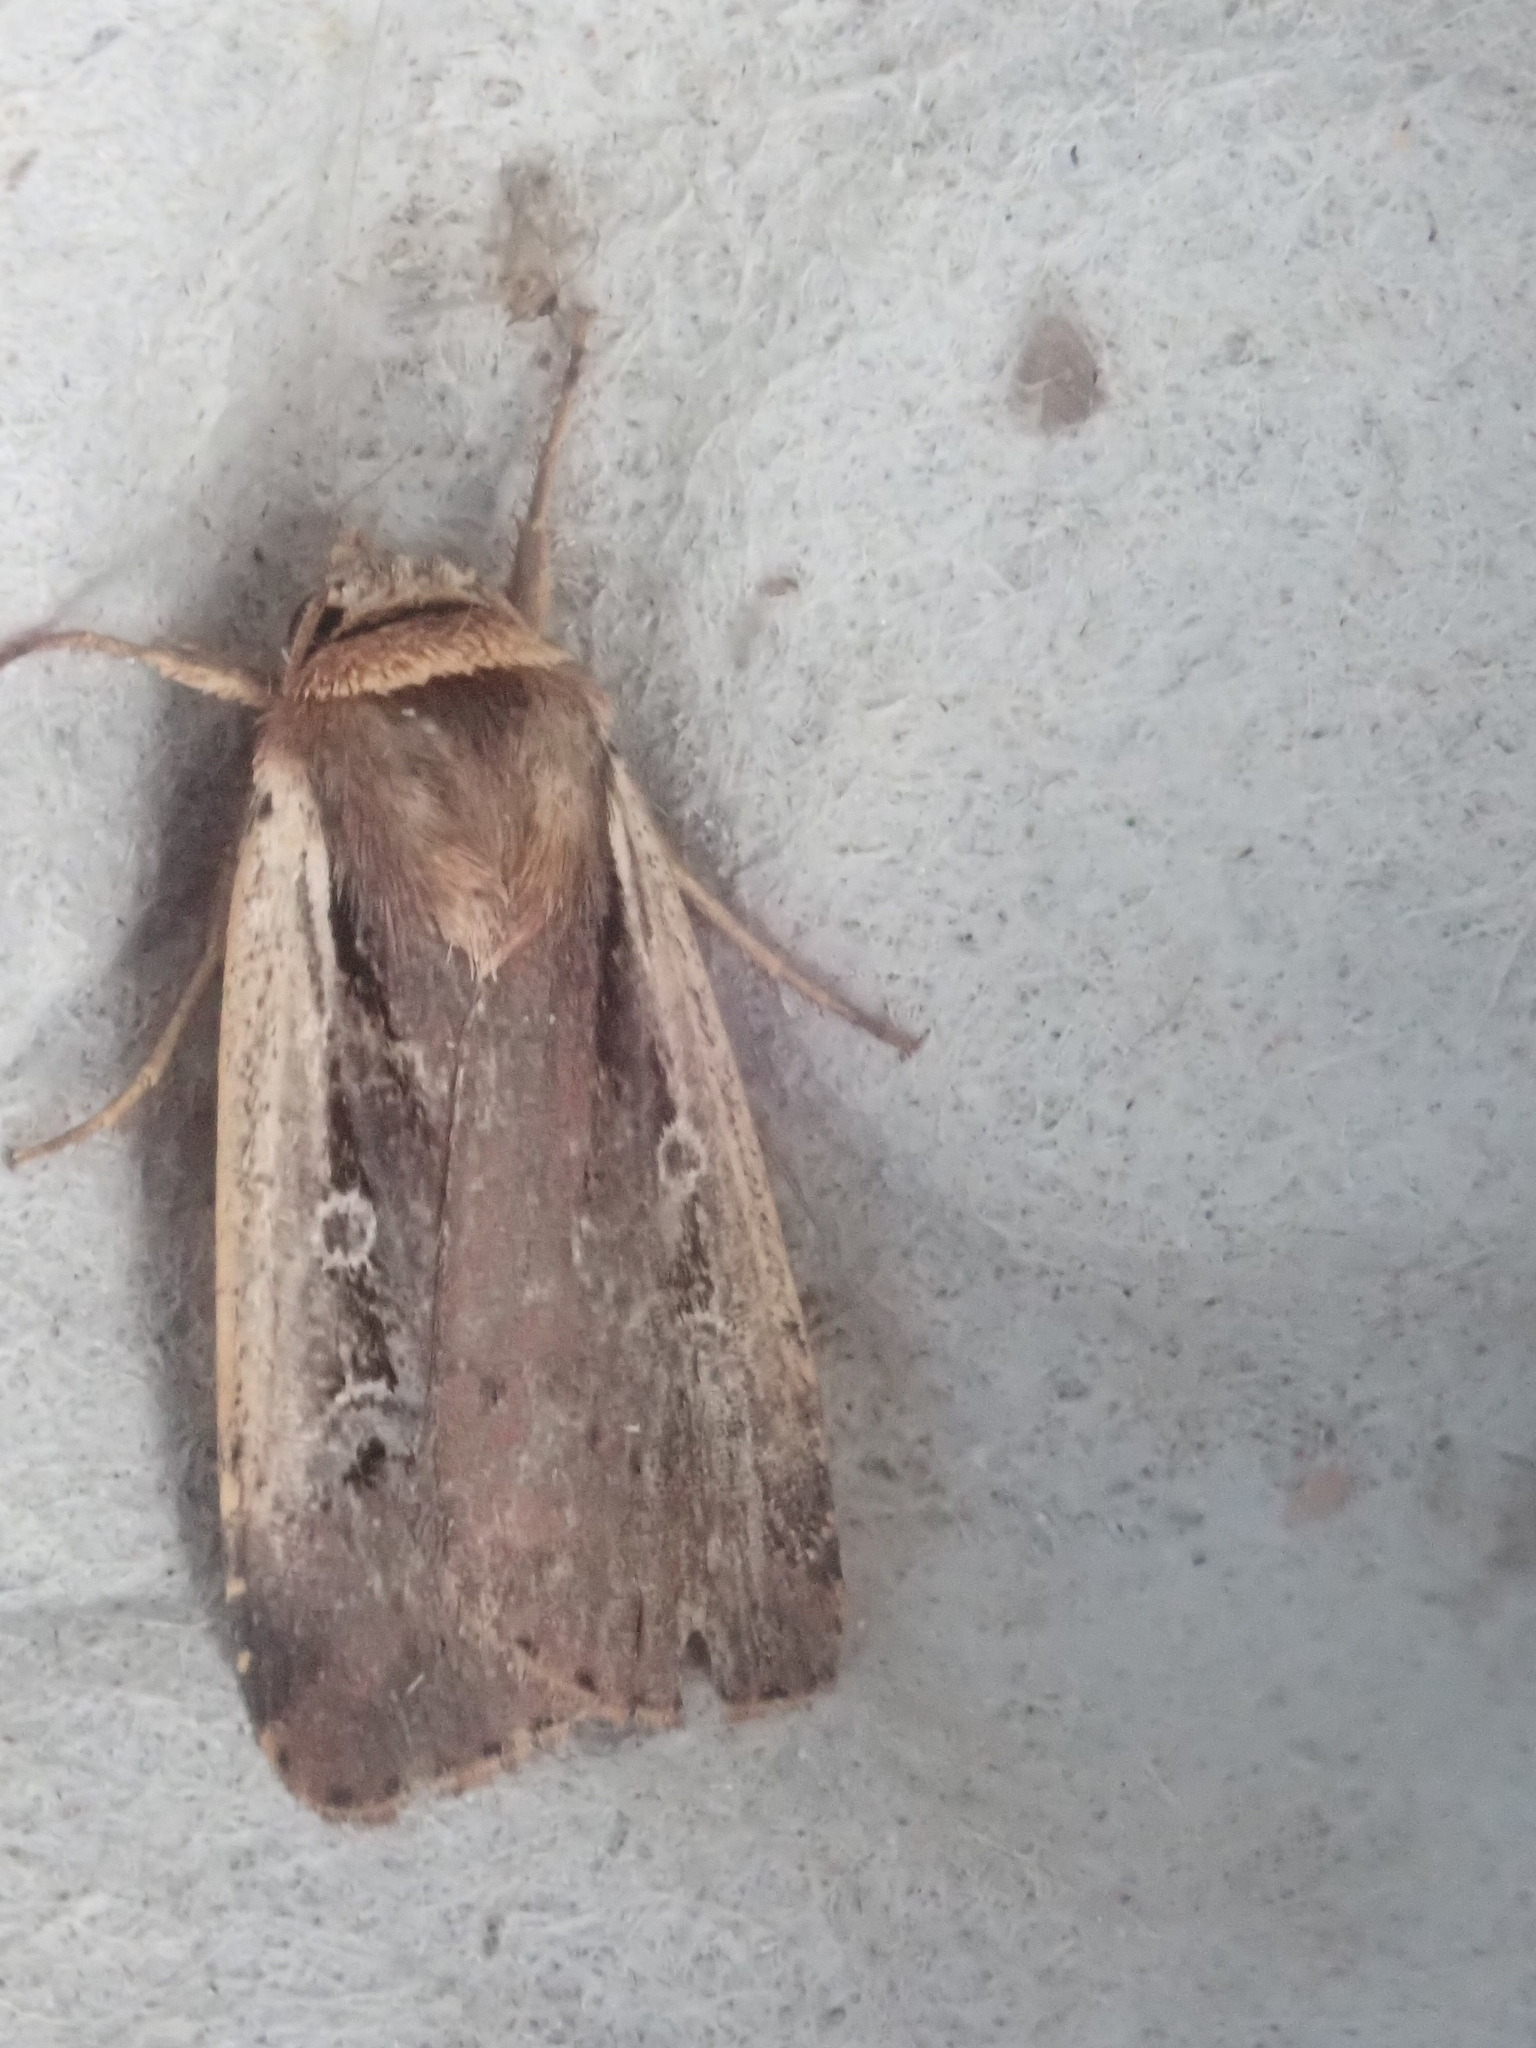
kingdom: Animalia
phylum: Arthropoda
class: Insecta
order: Lepidoptera
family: Noctuidae
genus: Ochropleura
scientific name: Ochropleura implecta
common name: Flame-shouldered dart
